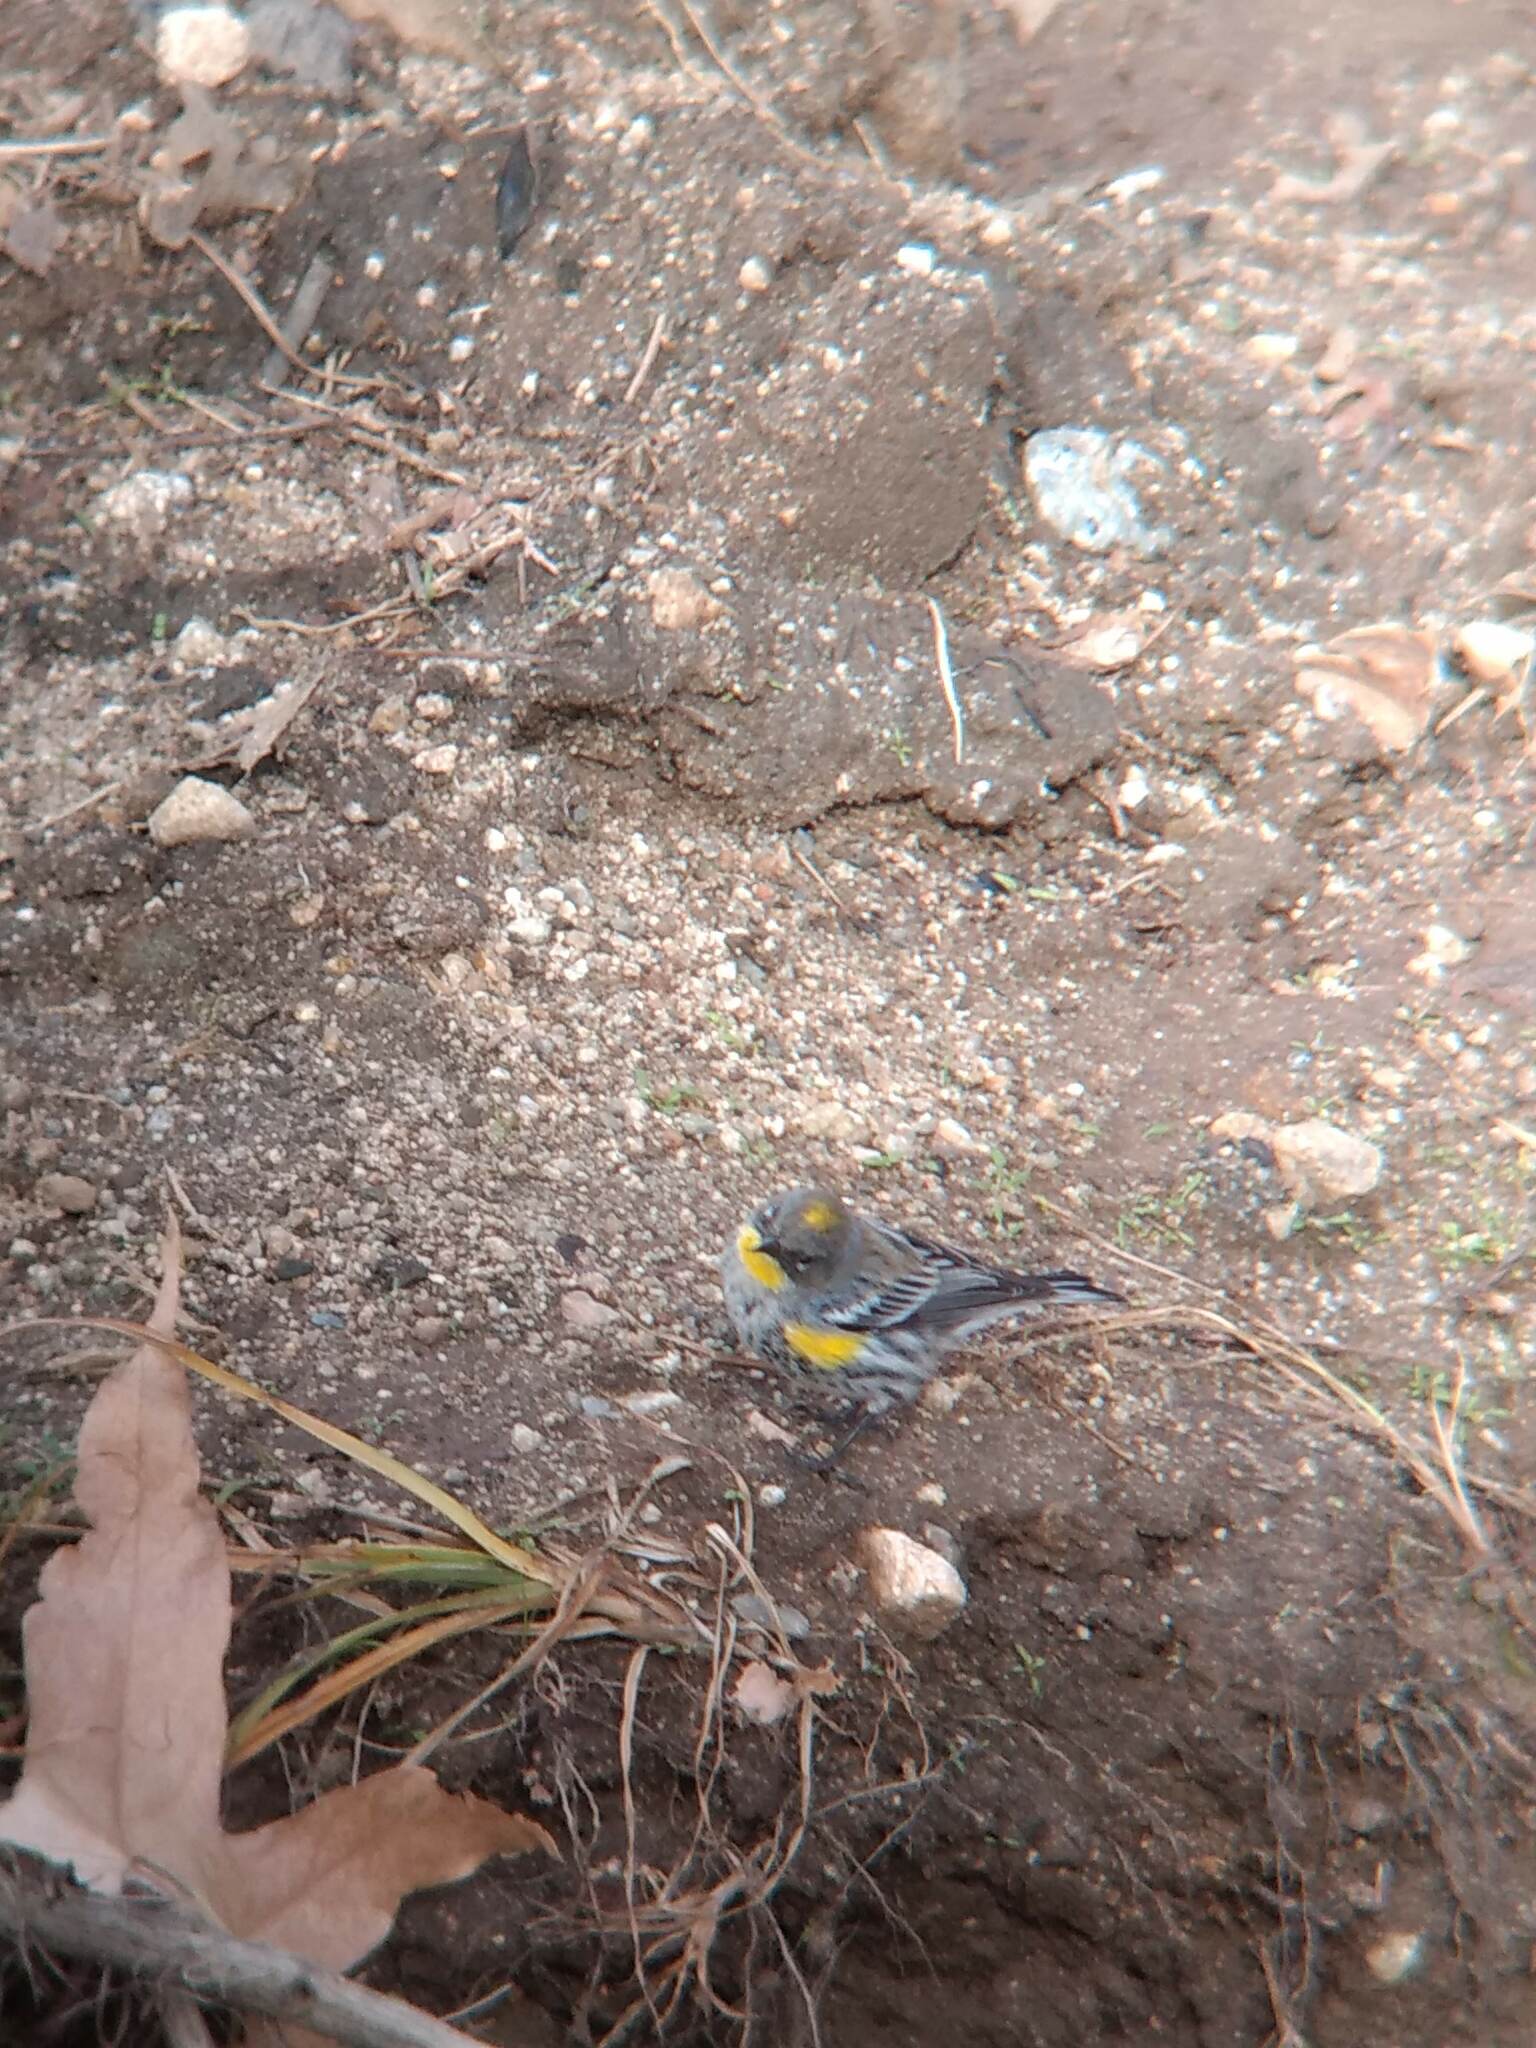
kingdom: Animalia
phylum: Chordata
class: Aves
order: Passeriformes
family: Parulidae
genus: Setophaga
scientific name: Setophaga coronata
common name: Myrtle warbler
